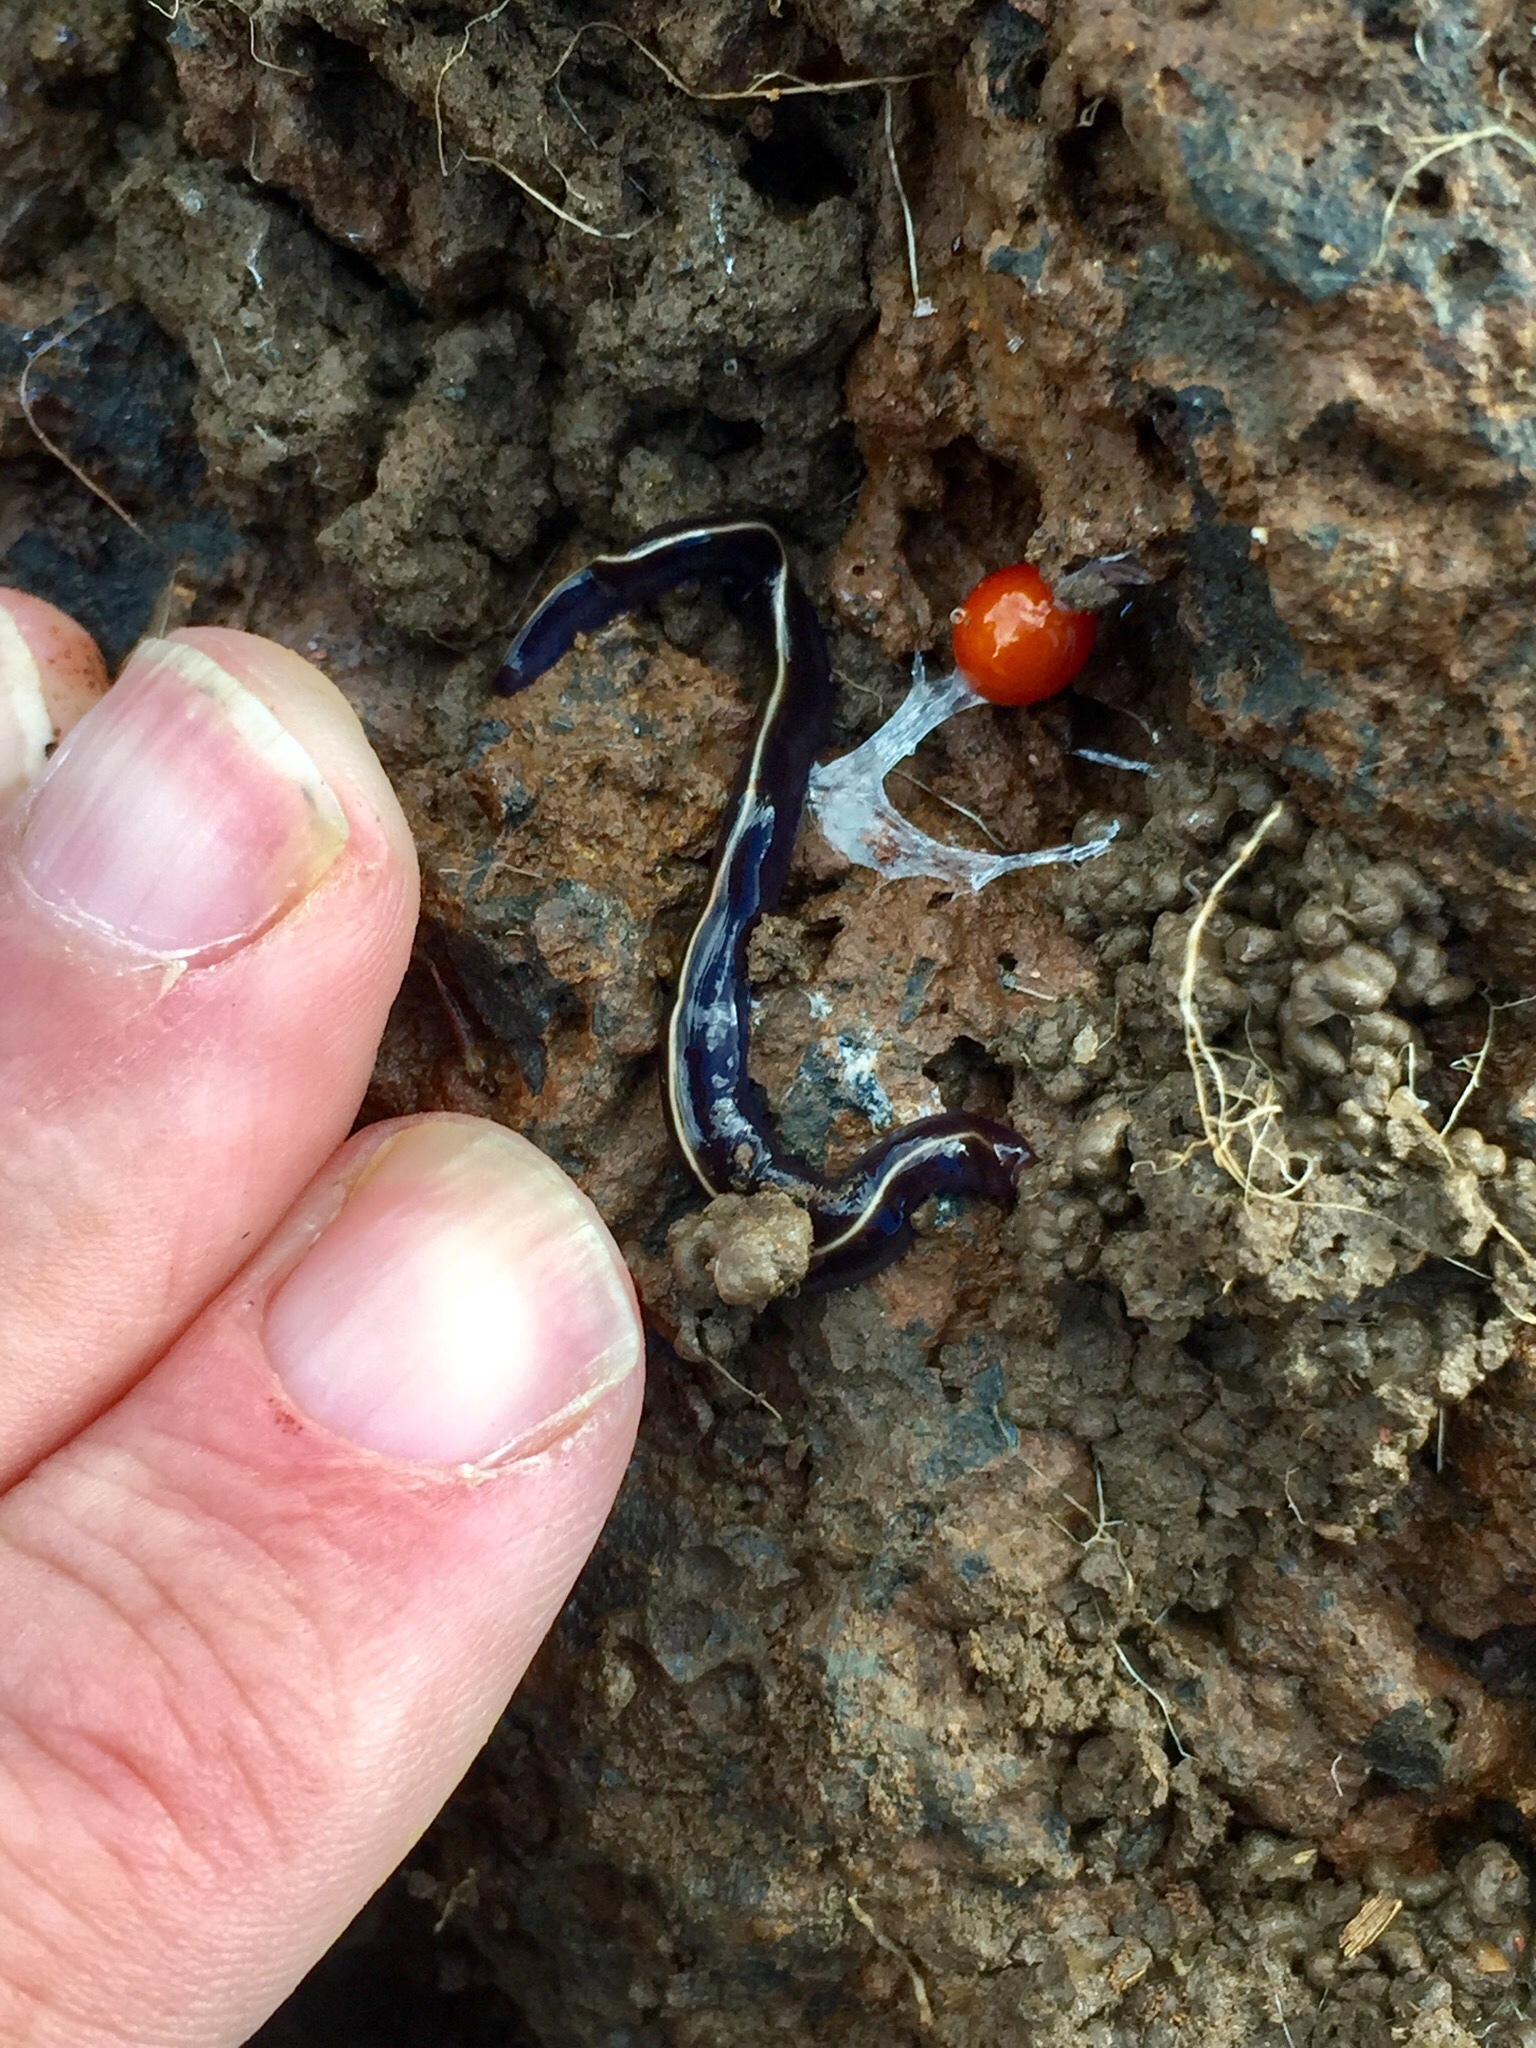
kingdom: Animalia
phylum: Platyhelminthes
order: Tricladida
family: Geoplanidae
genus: Caenoplana
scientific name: Caenoplana coerulea
